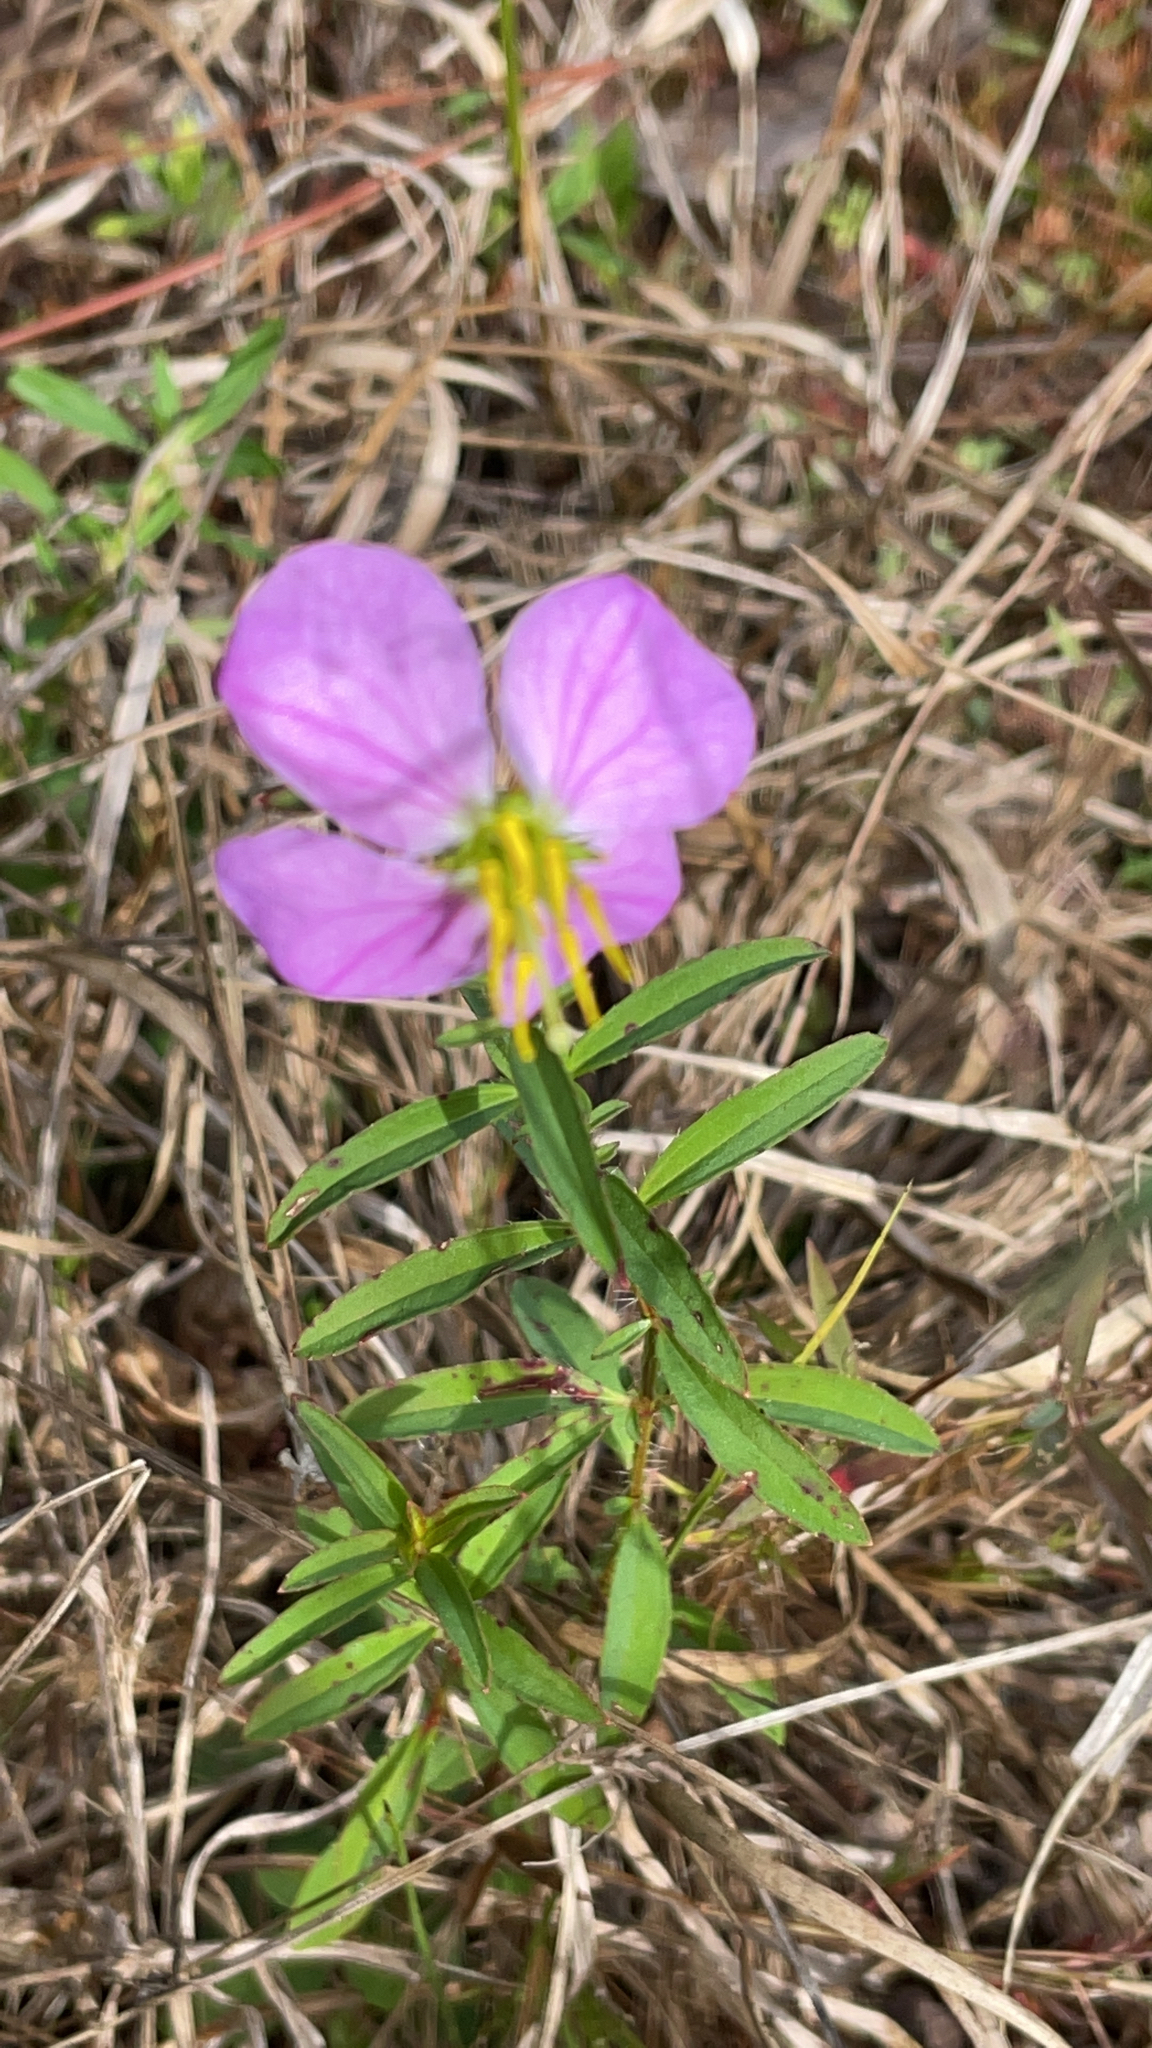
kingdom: Plantae
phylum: Tracheophyta
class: Magnoliopsida
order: Myrtales
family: Melastomataceae
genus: Rhexia
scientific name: Rhexia mariana
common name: Dull meadow-pitcher
